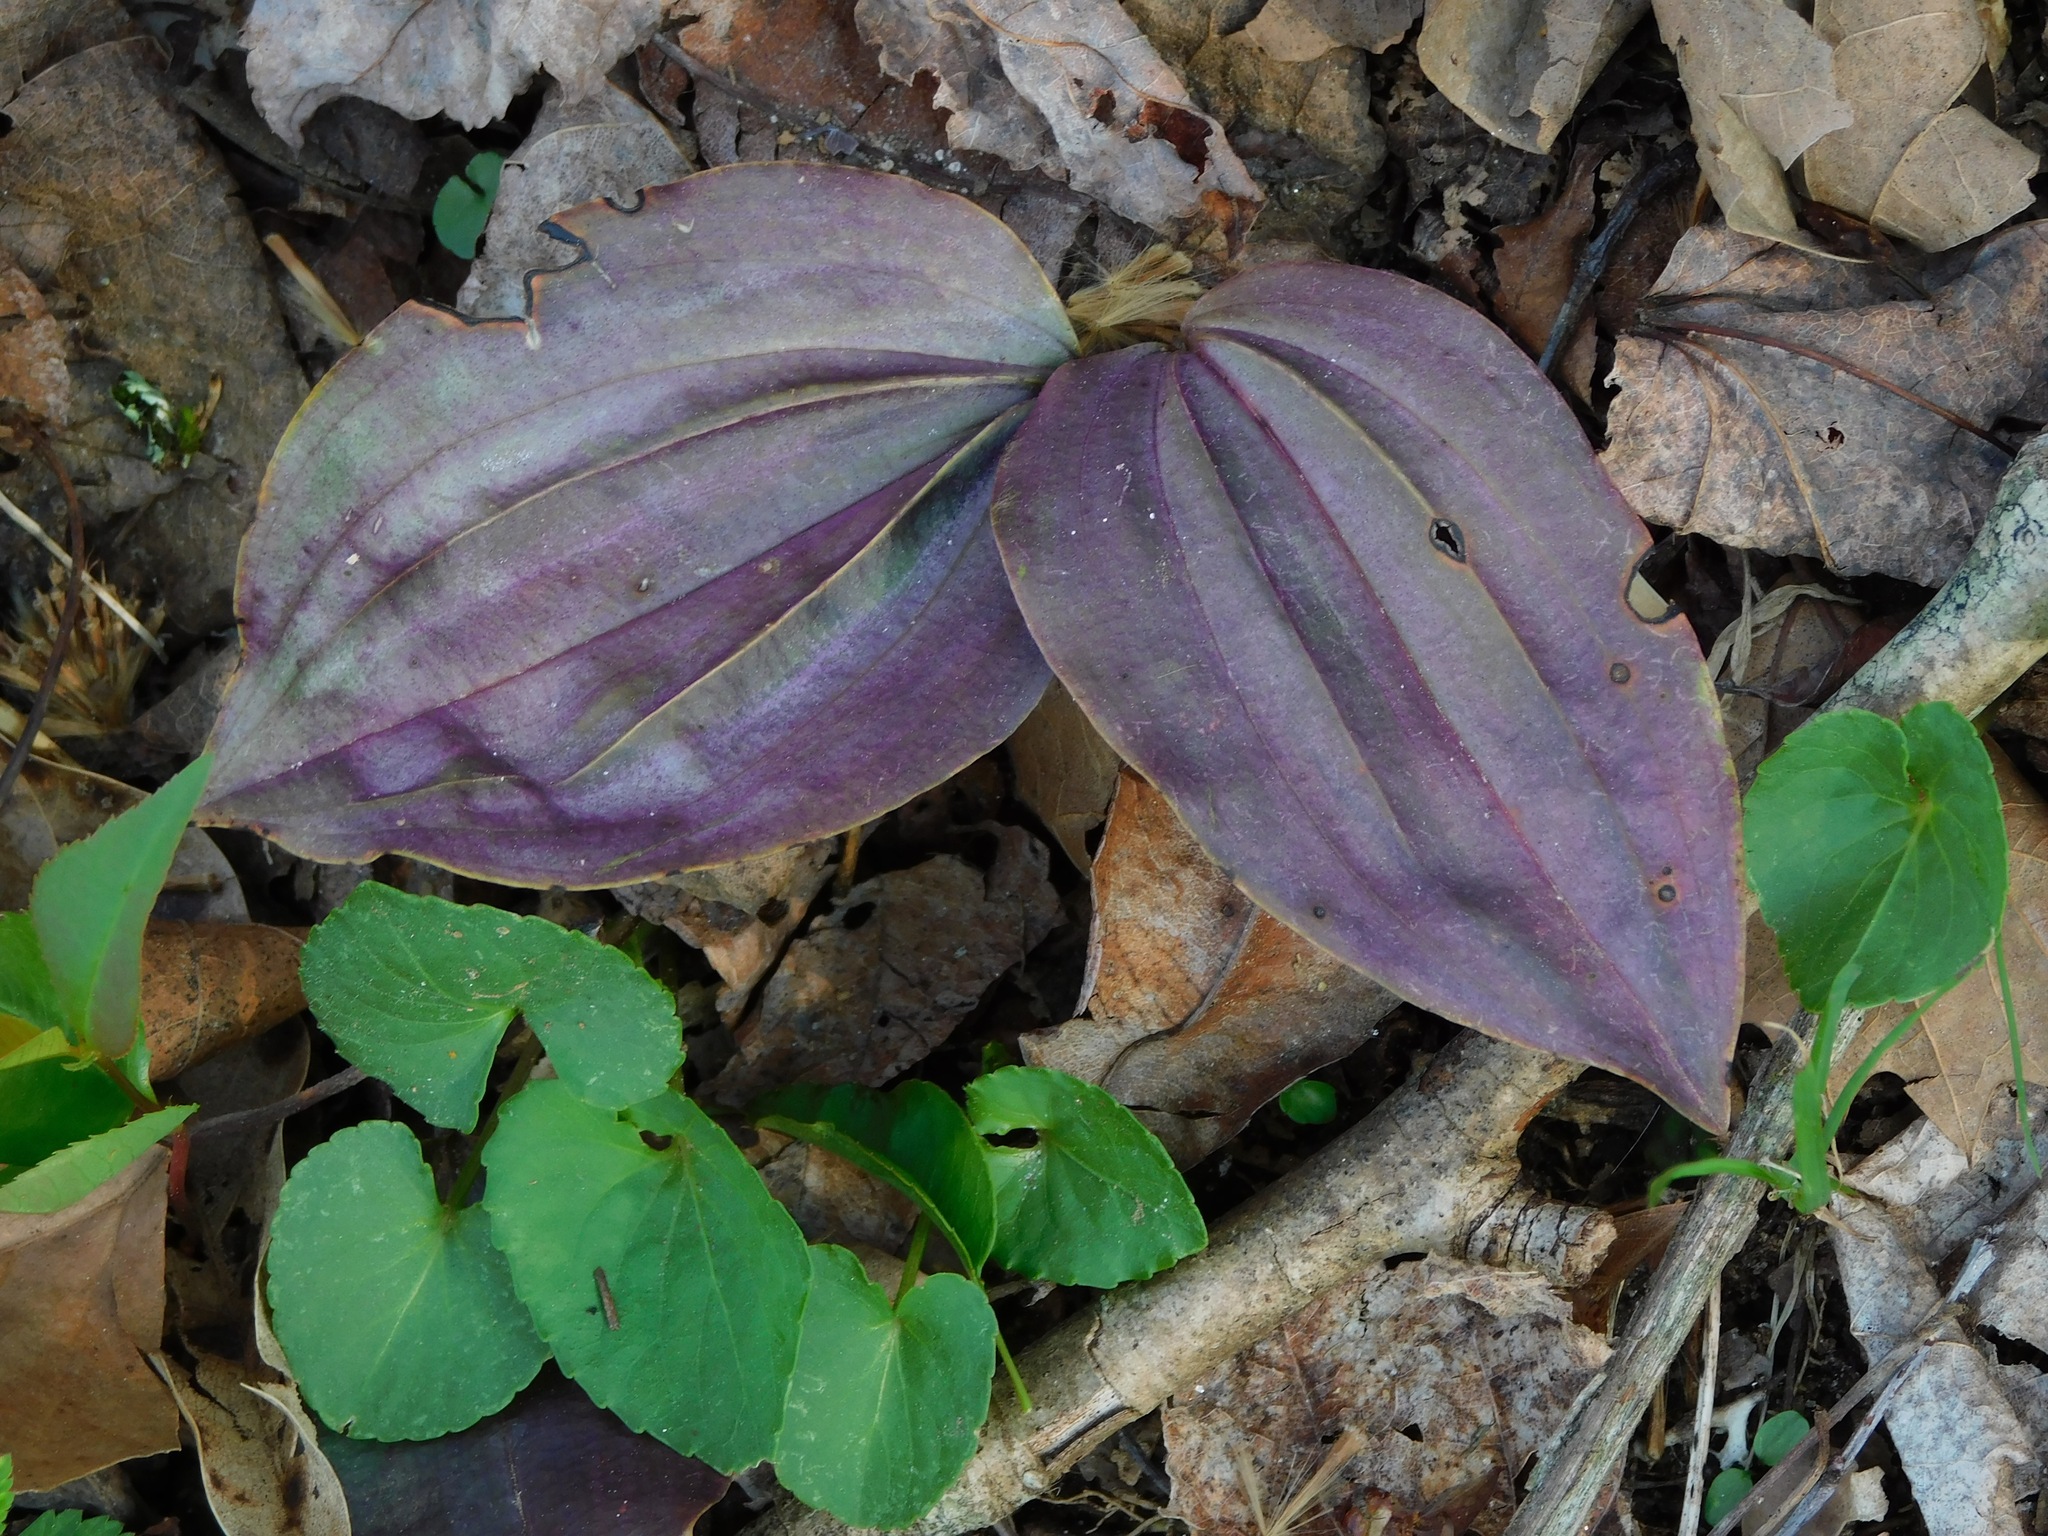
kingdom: Plantae
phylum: Tracheophyta
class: Liliopsida
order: Asparagales
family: Orchidaceae
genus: Tipularia
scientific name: Tipularia discolor
